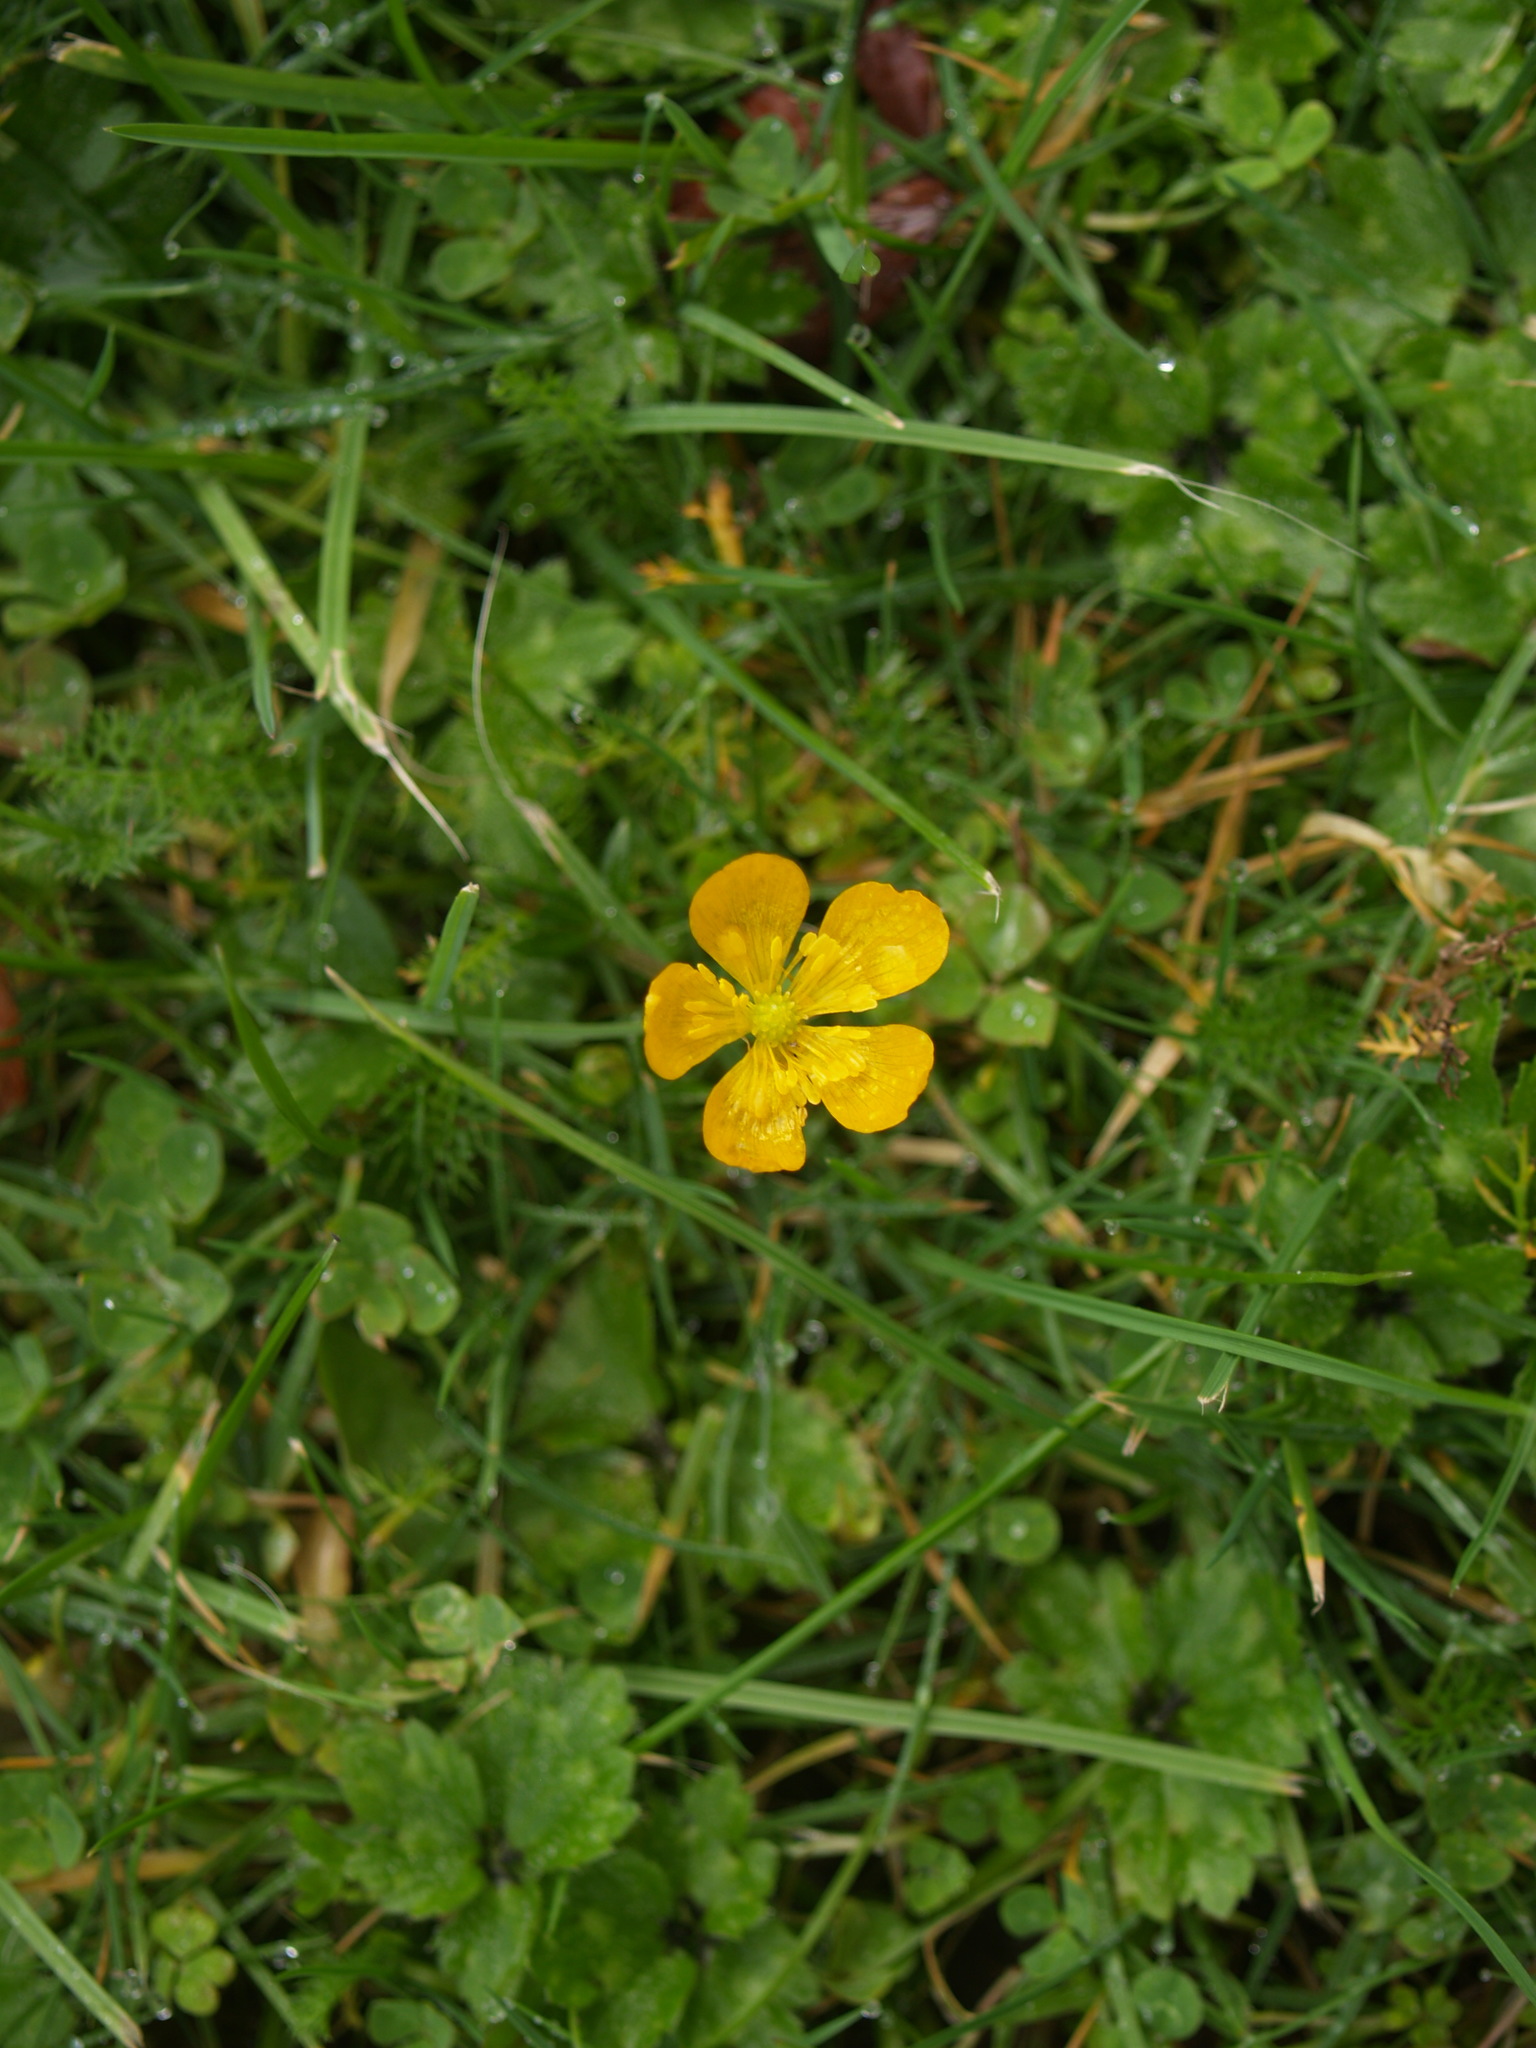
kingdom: Plantae
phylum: Tracheophyta
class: Magnoliopsida
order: Ranunculales
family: Ranunculaceae
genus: Ranunculus
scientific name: Ranunculus repens
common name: Creeping buttercup
